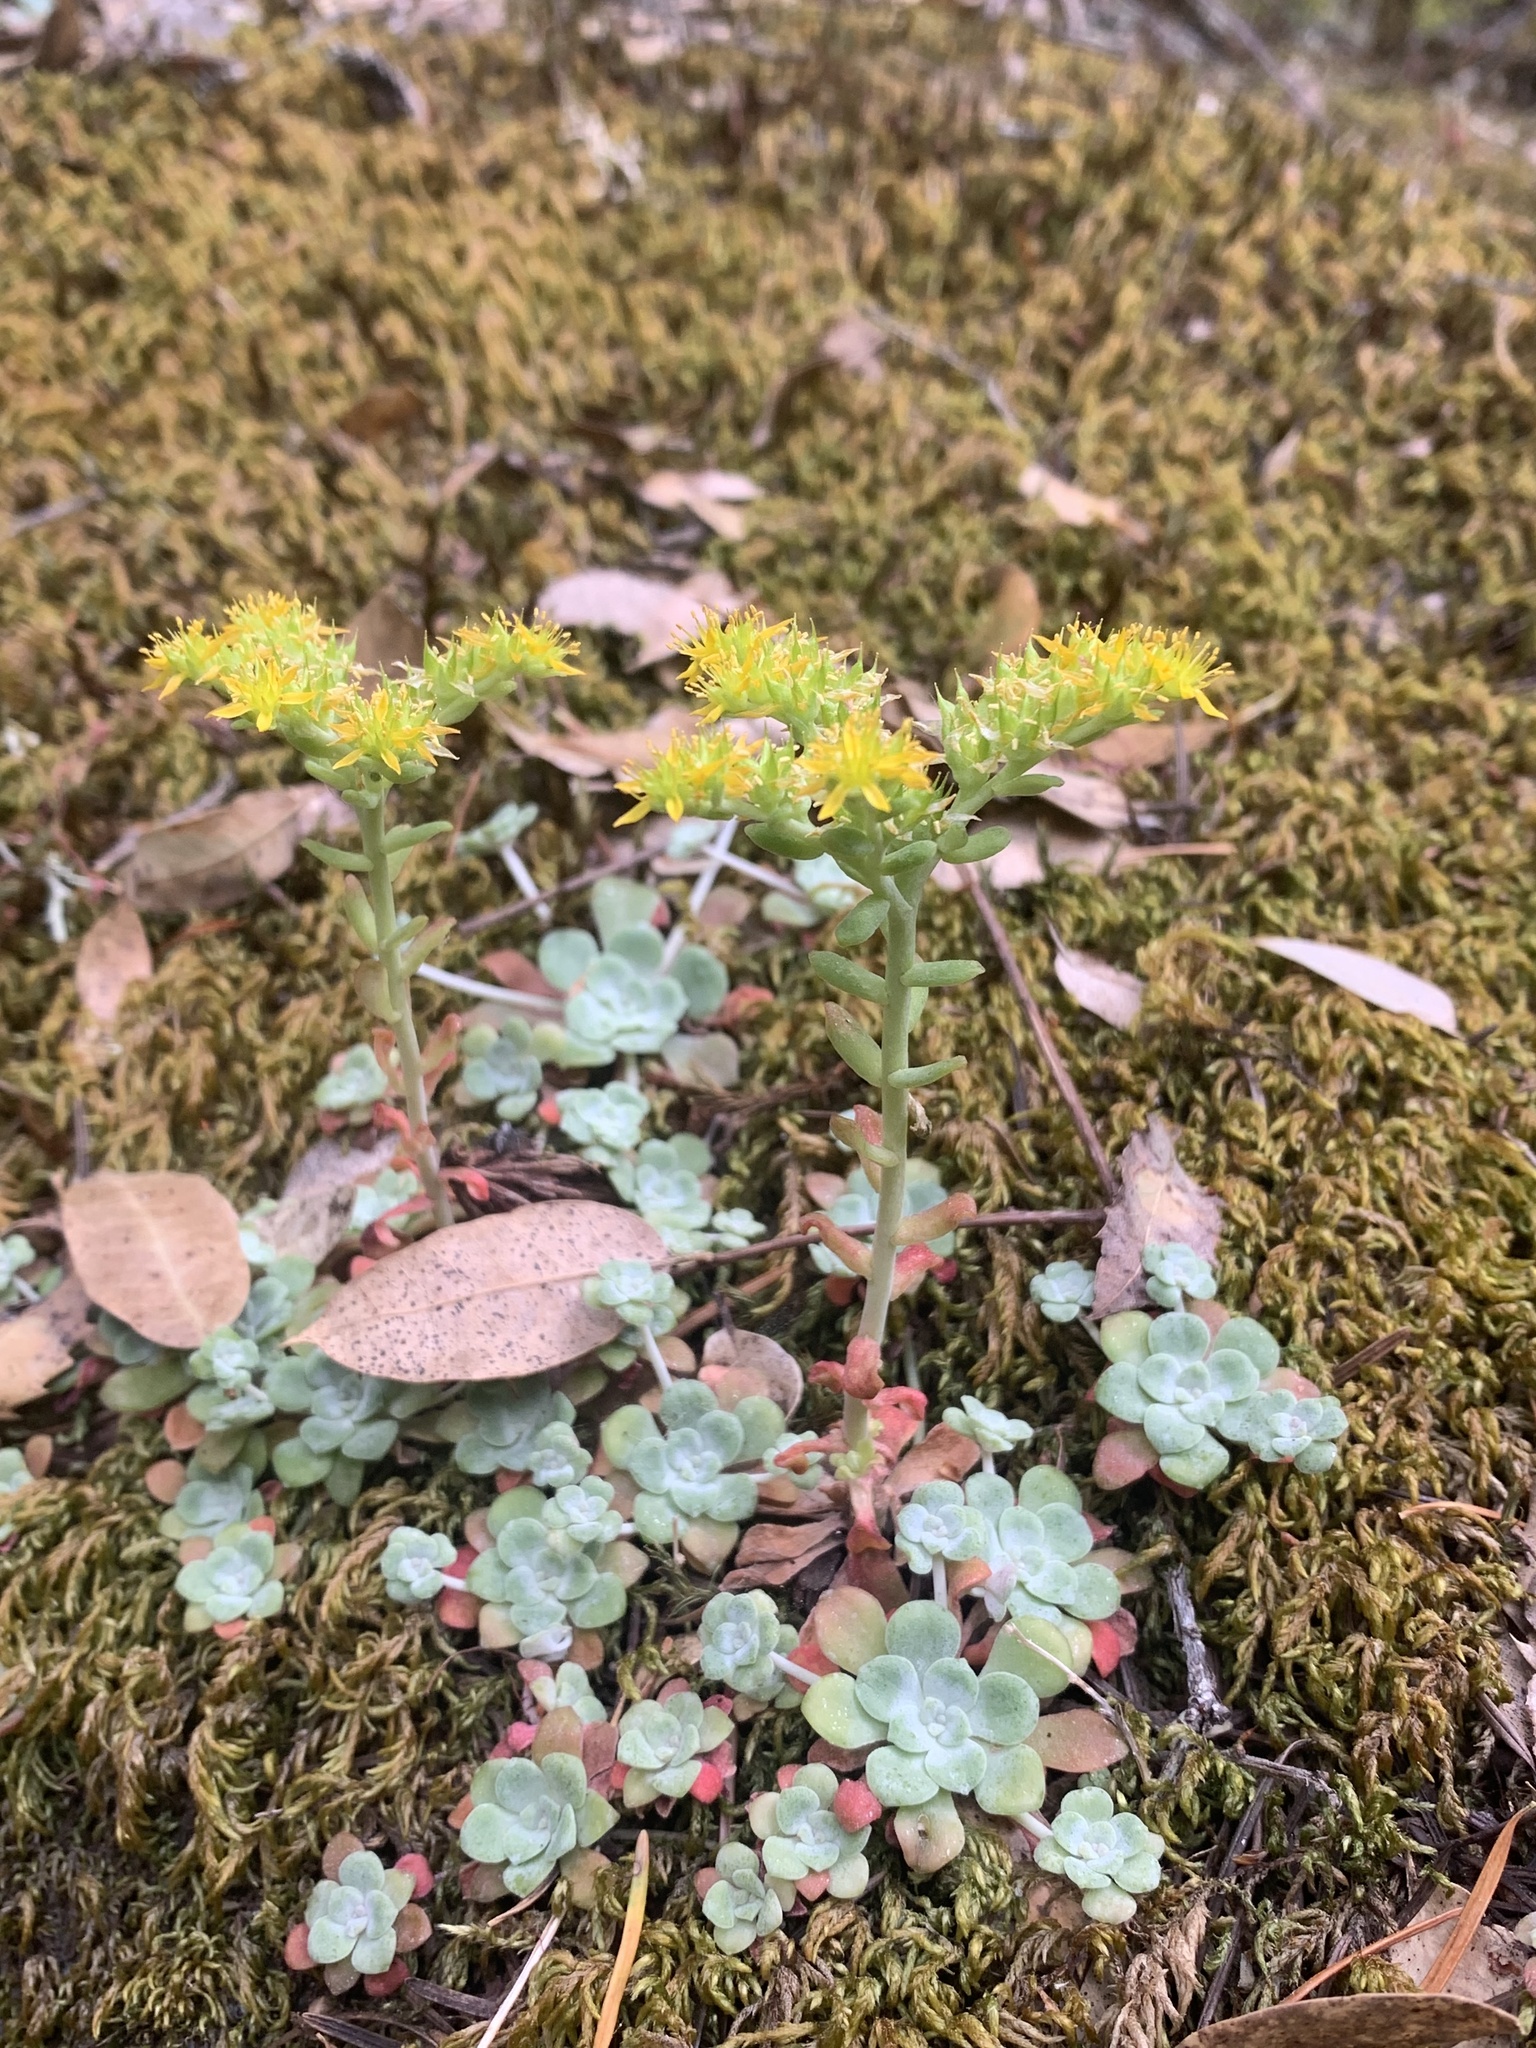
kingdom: Plantae
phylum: Tracheophyta
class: Magnoliopsida
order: Saxifragales
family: Crassulaceae
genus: Sedum
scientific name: Sedum spathulifolium
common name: Colorado stonecrop
